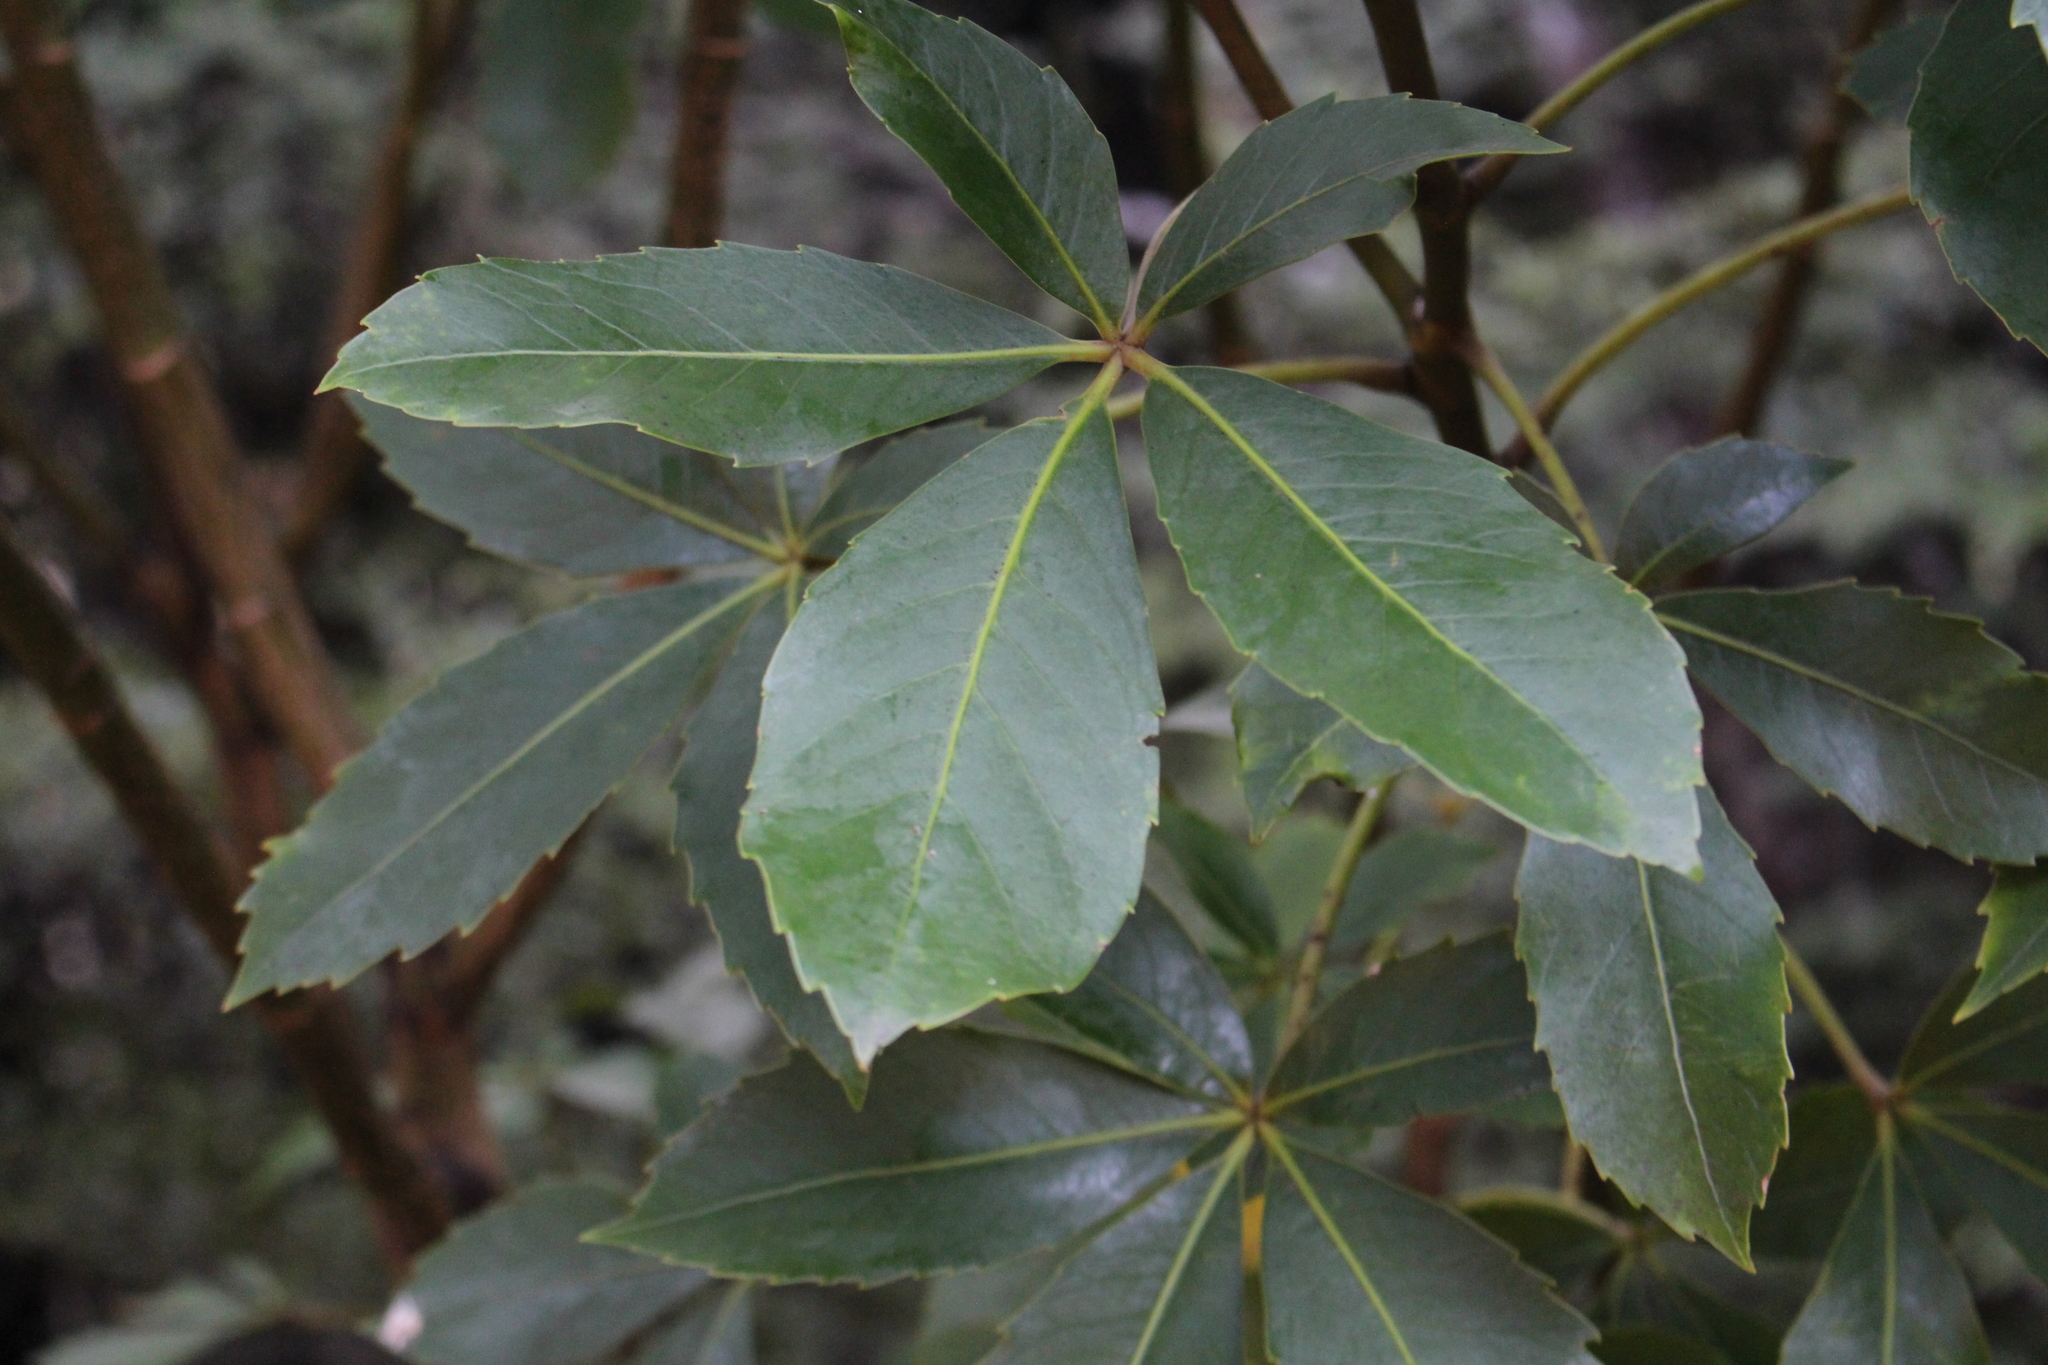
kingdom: Plantae
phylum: Tracheophyta
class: Magnoliopsida
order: Apiales
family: Araliaceae
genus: Neopanax
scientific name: Neopanax colensoi
